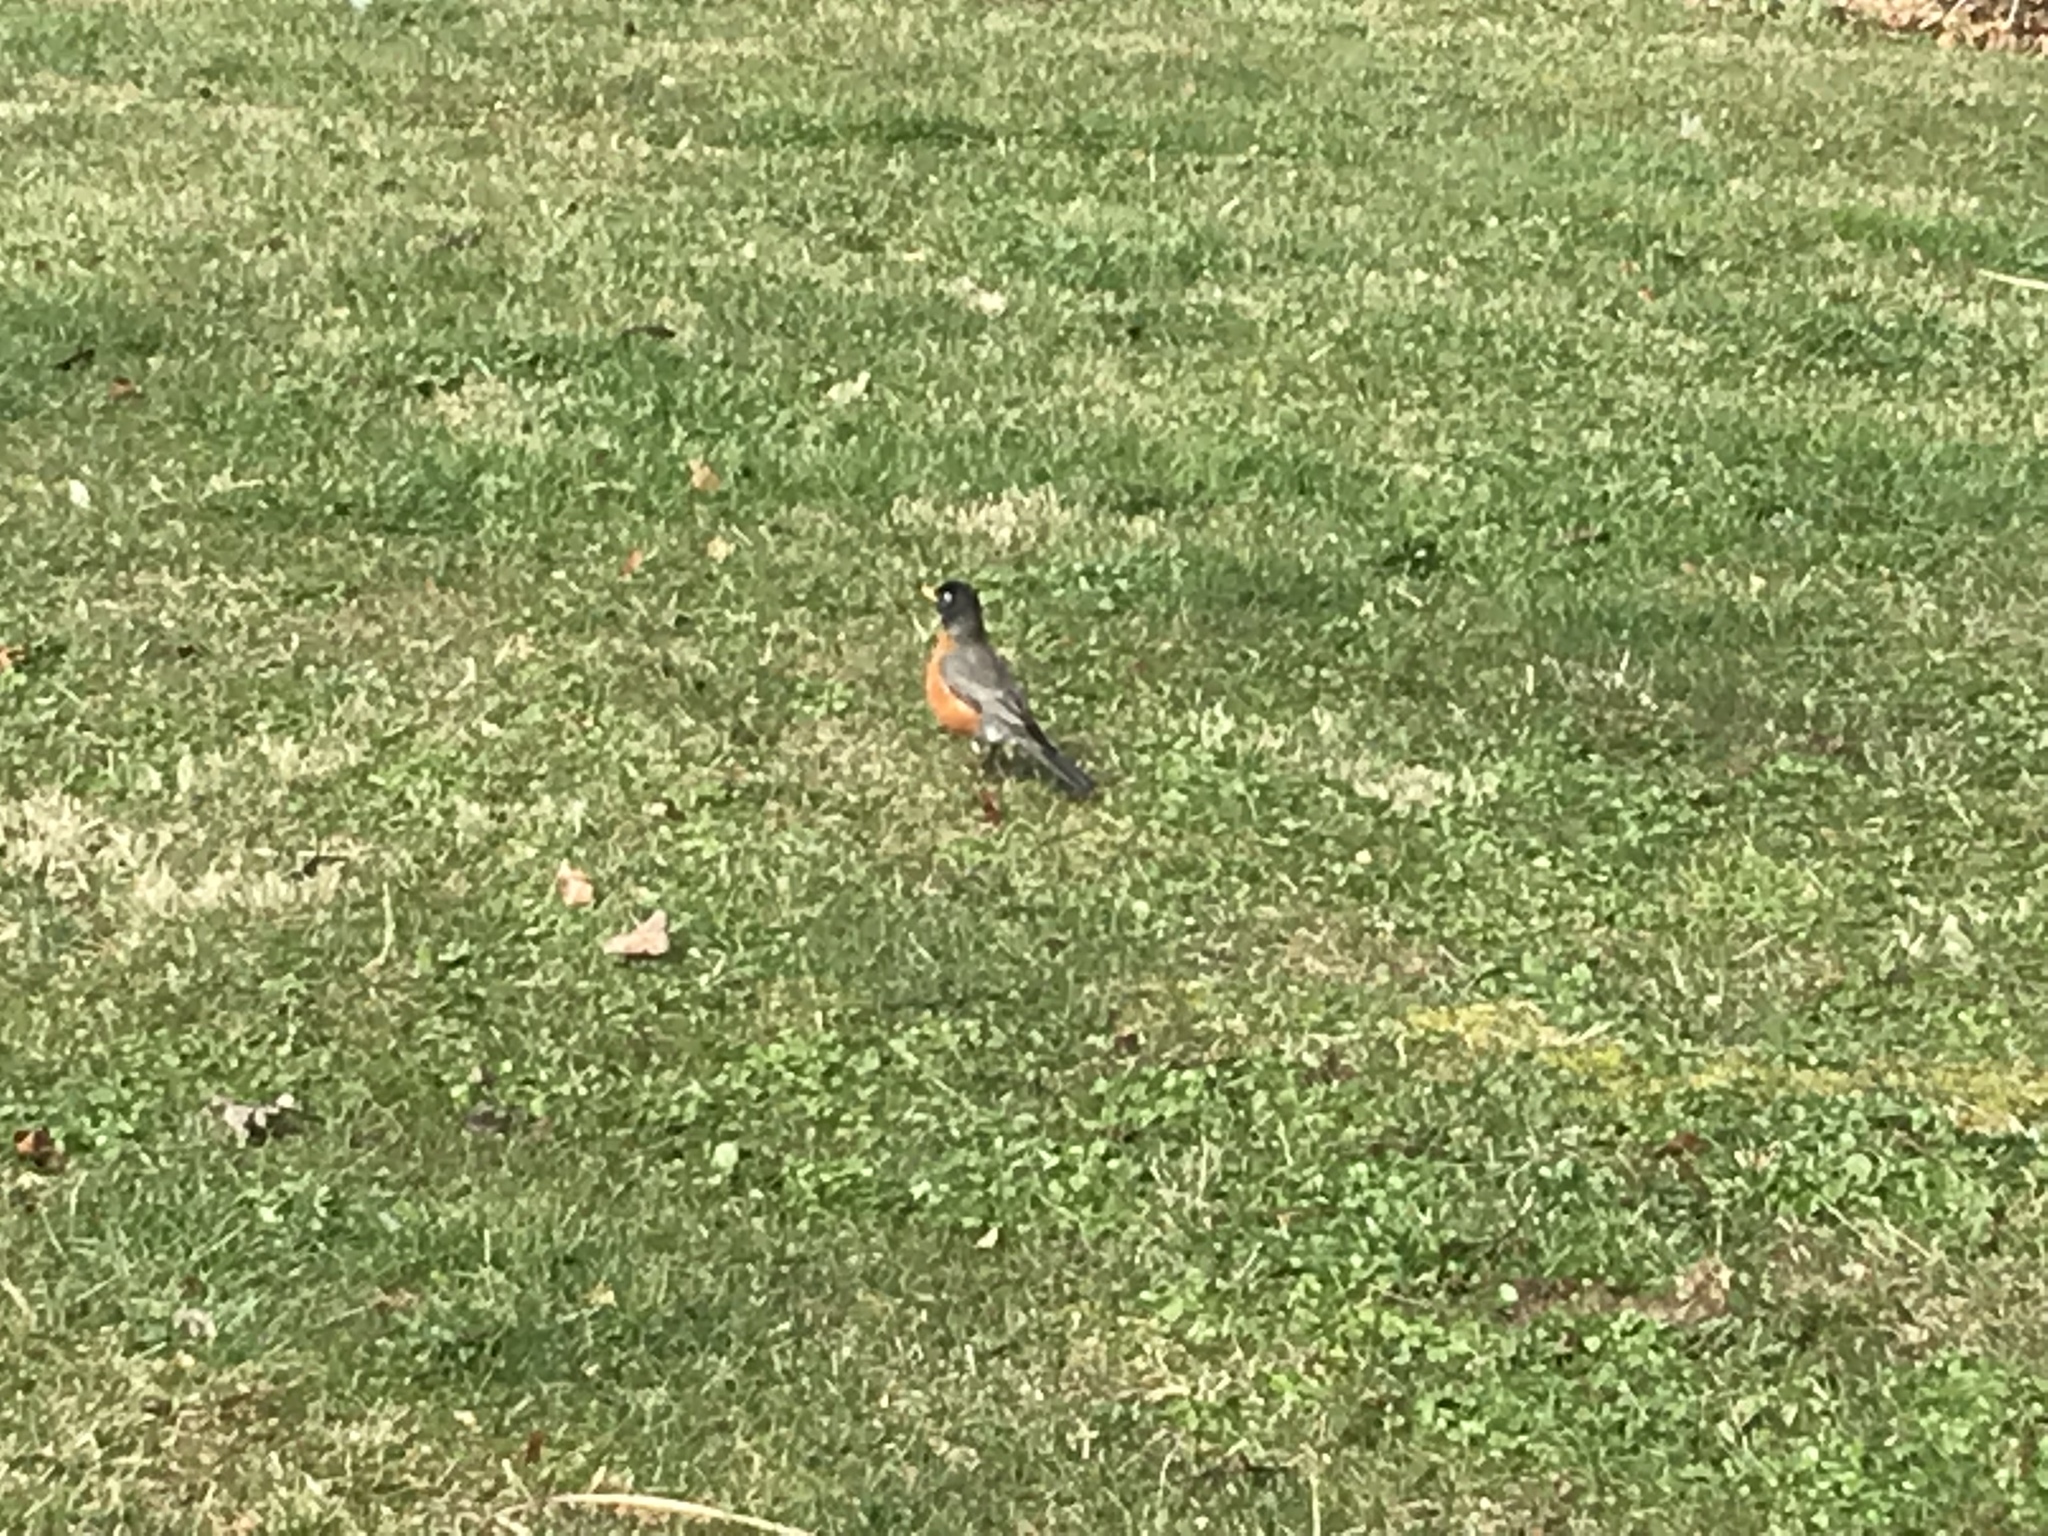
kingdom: Animalia
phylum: Chordata
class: Aves
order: Passeriformes
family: Turdidae
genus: Turdus
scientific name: Turdus migratorius
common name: American robin
